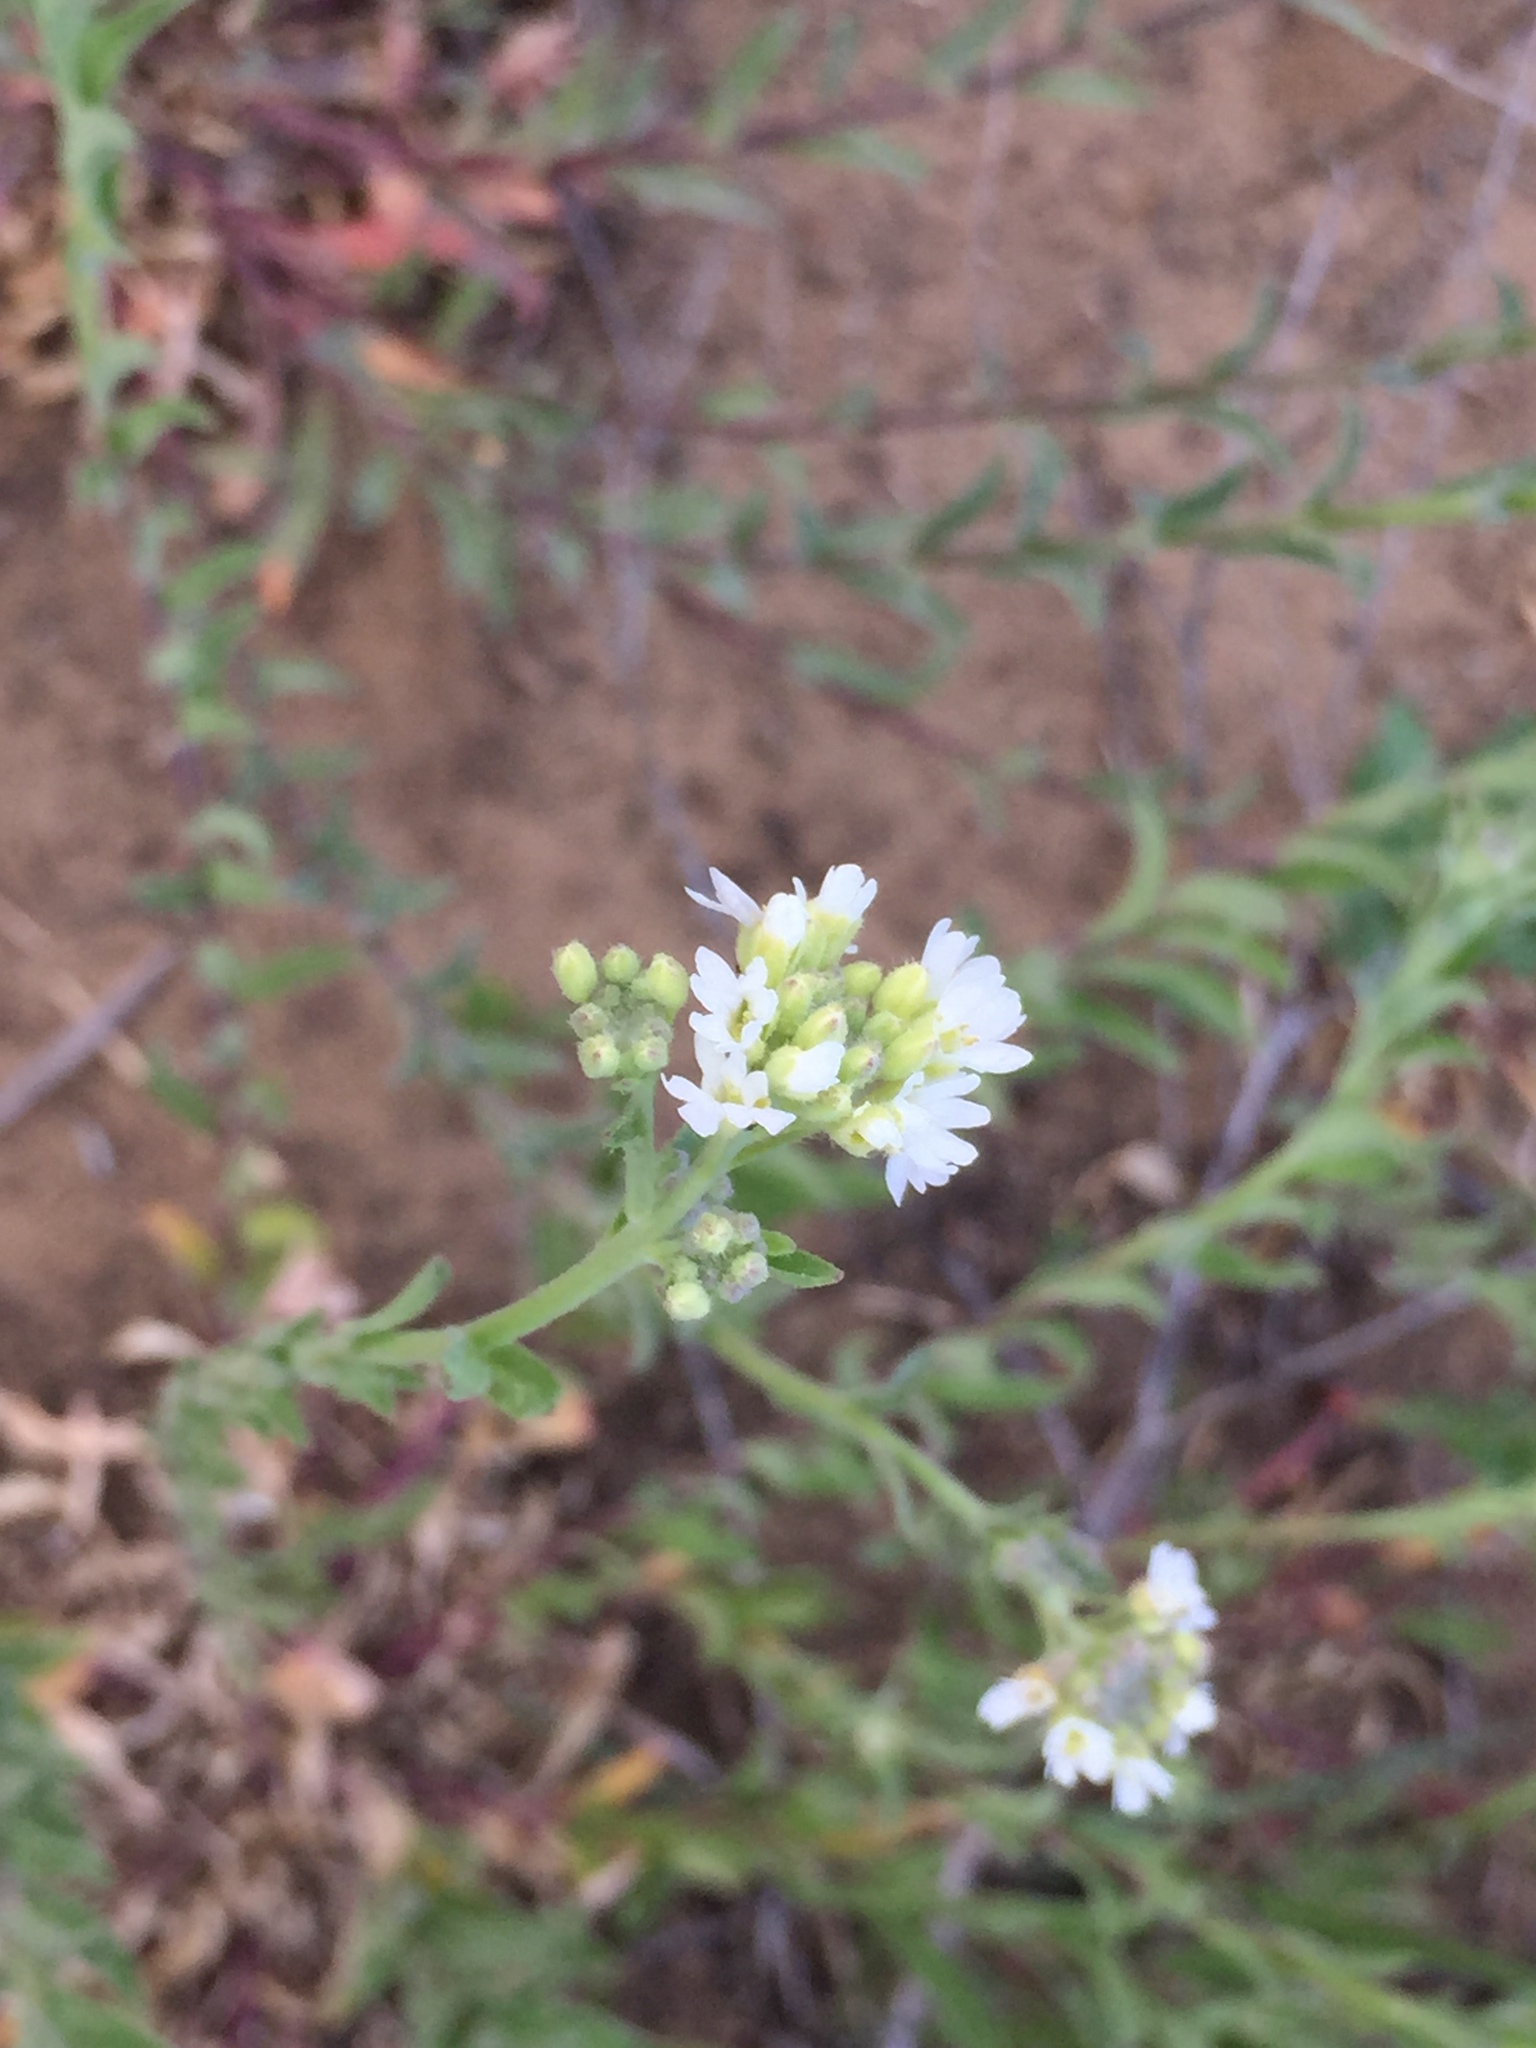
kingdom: Plantae
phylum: Tracheophyta
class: Magnoliopsida
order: Brassicales
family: Brassicaceae
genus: Berteroa
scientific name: Berteroa incana
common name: Hoary alison
